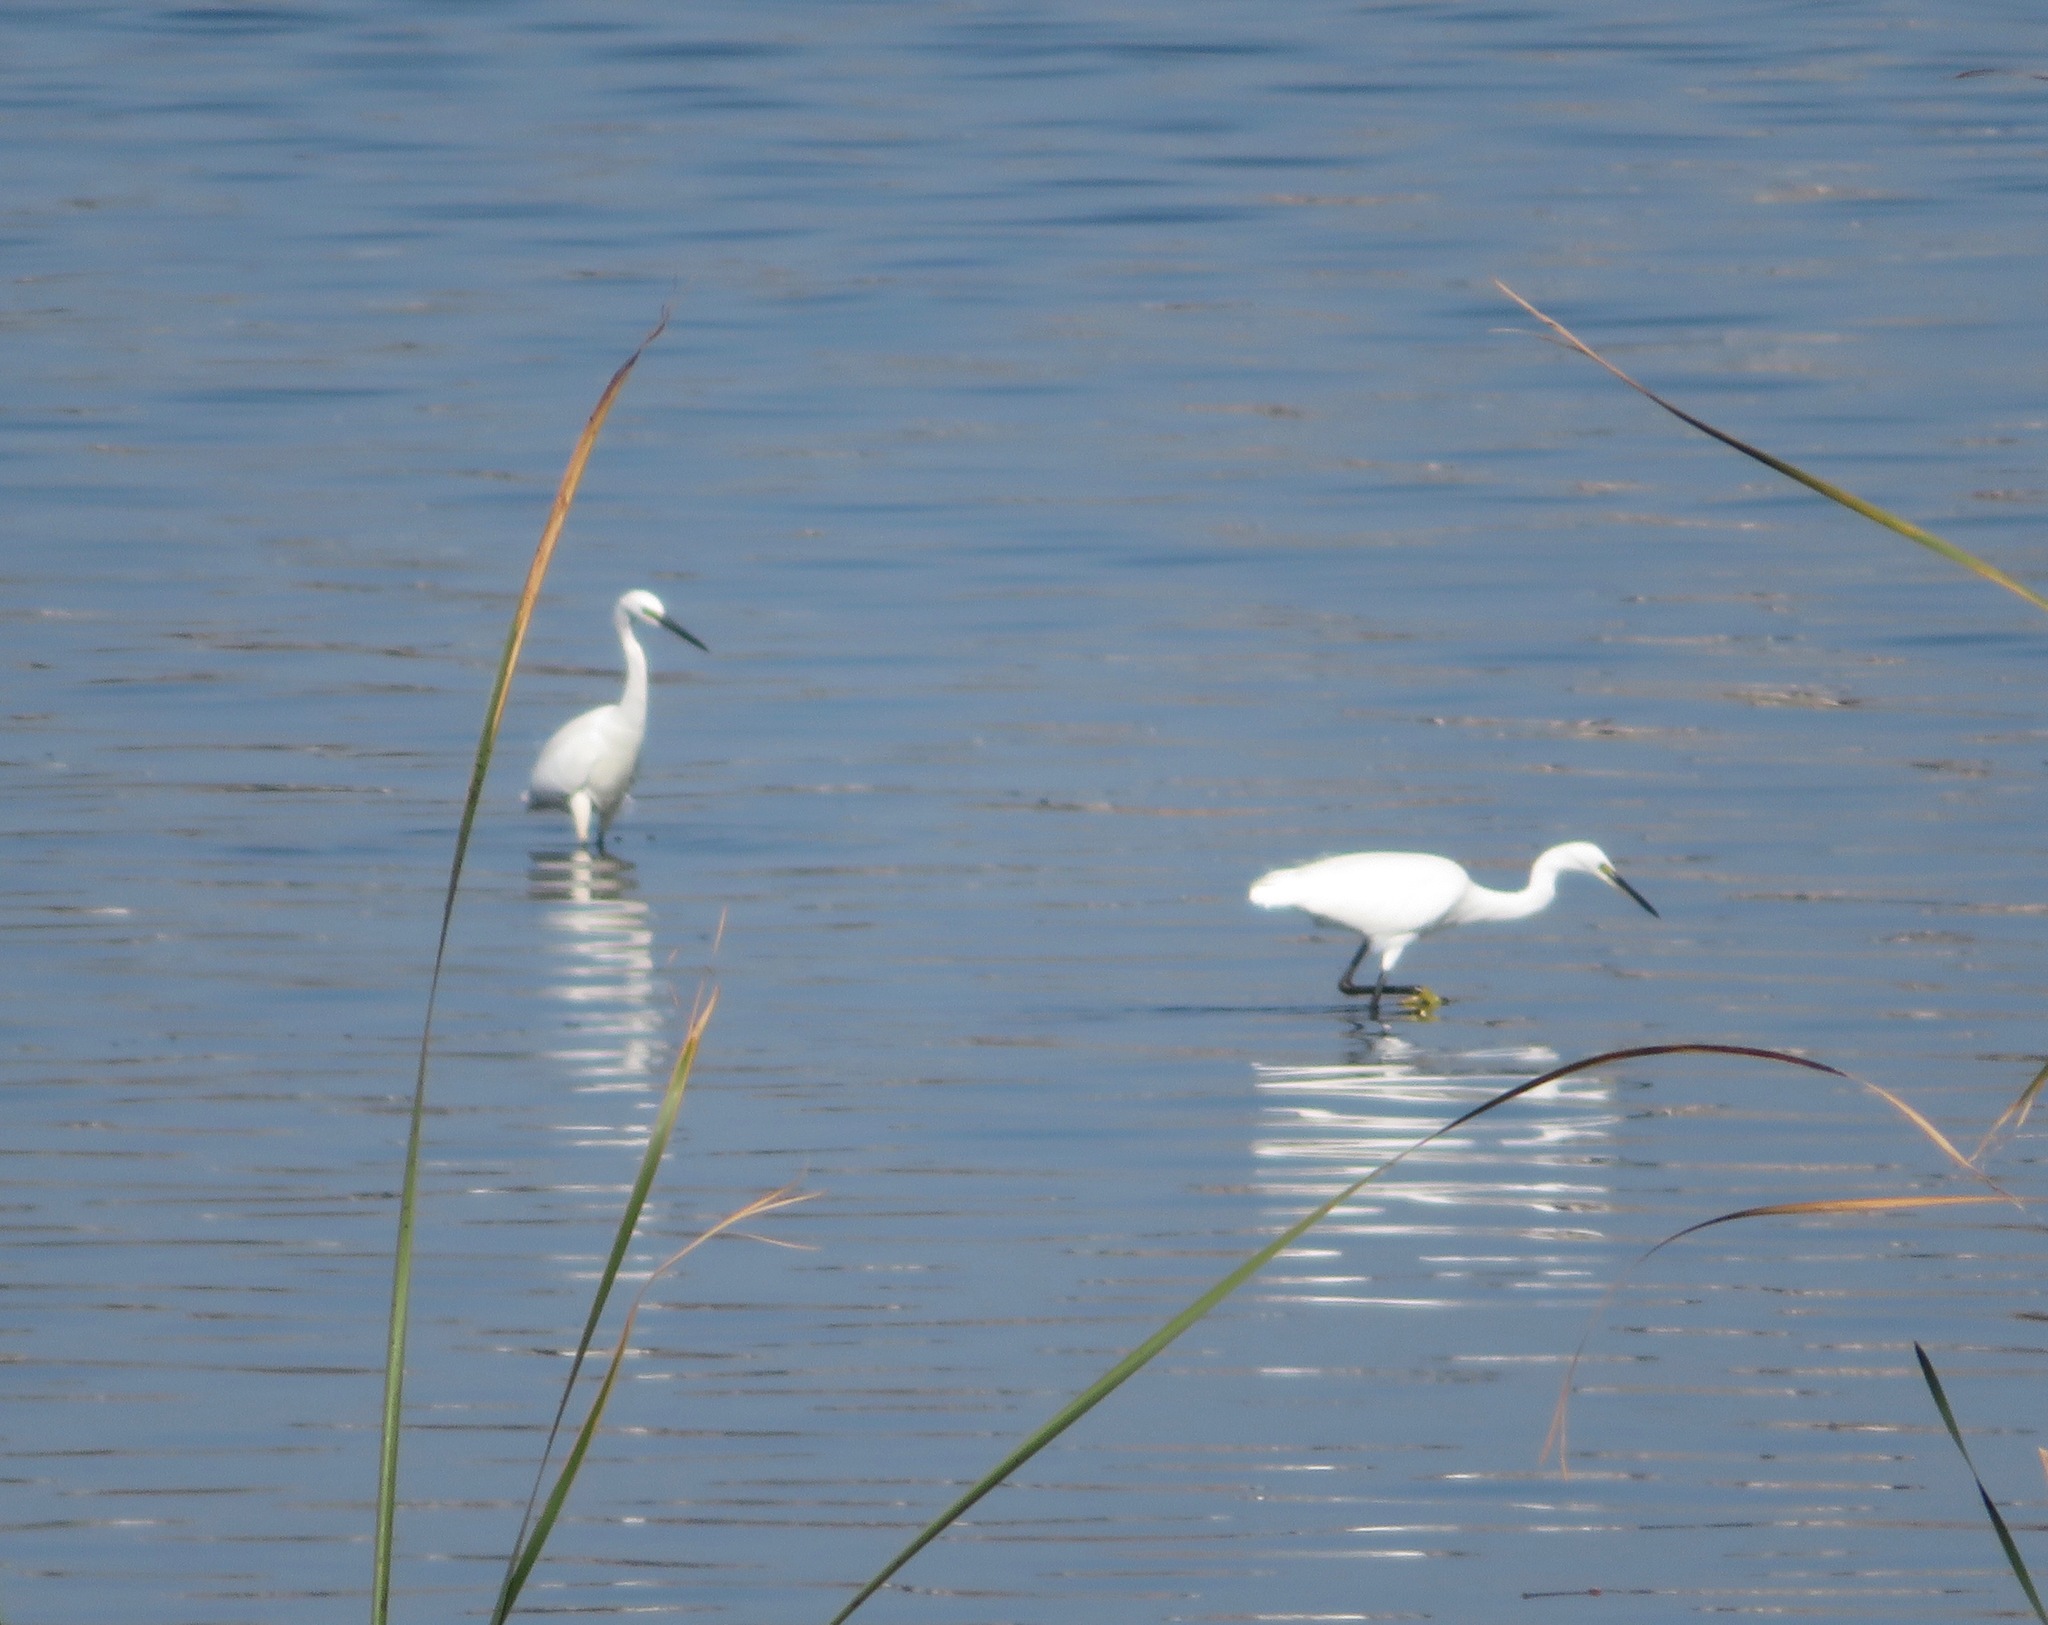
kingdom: Animalia
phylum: Chordata
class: Aves
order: Pelecaniformes
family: Ardeidae
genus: Egretta
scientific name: Egretta garzetta
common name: Little egret
